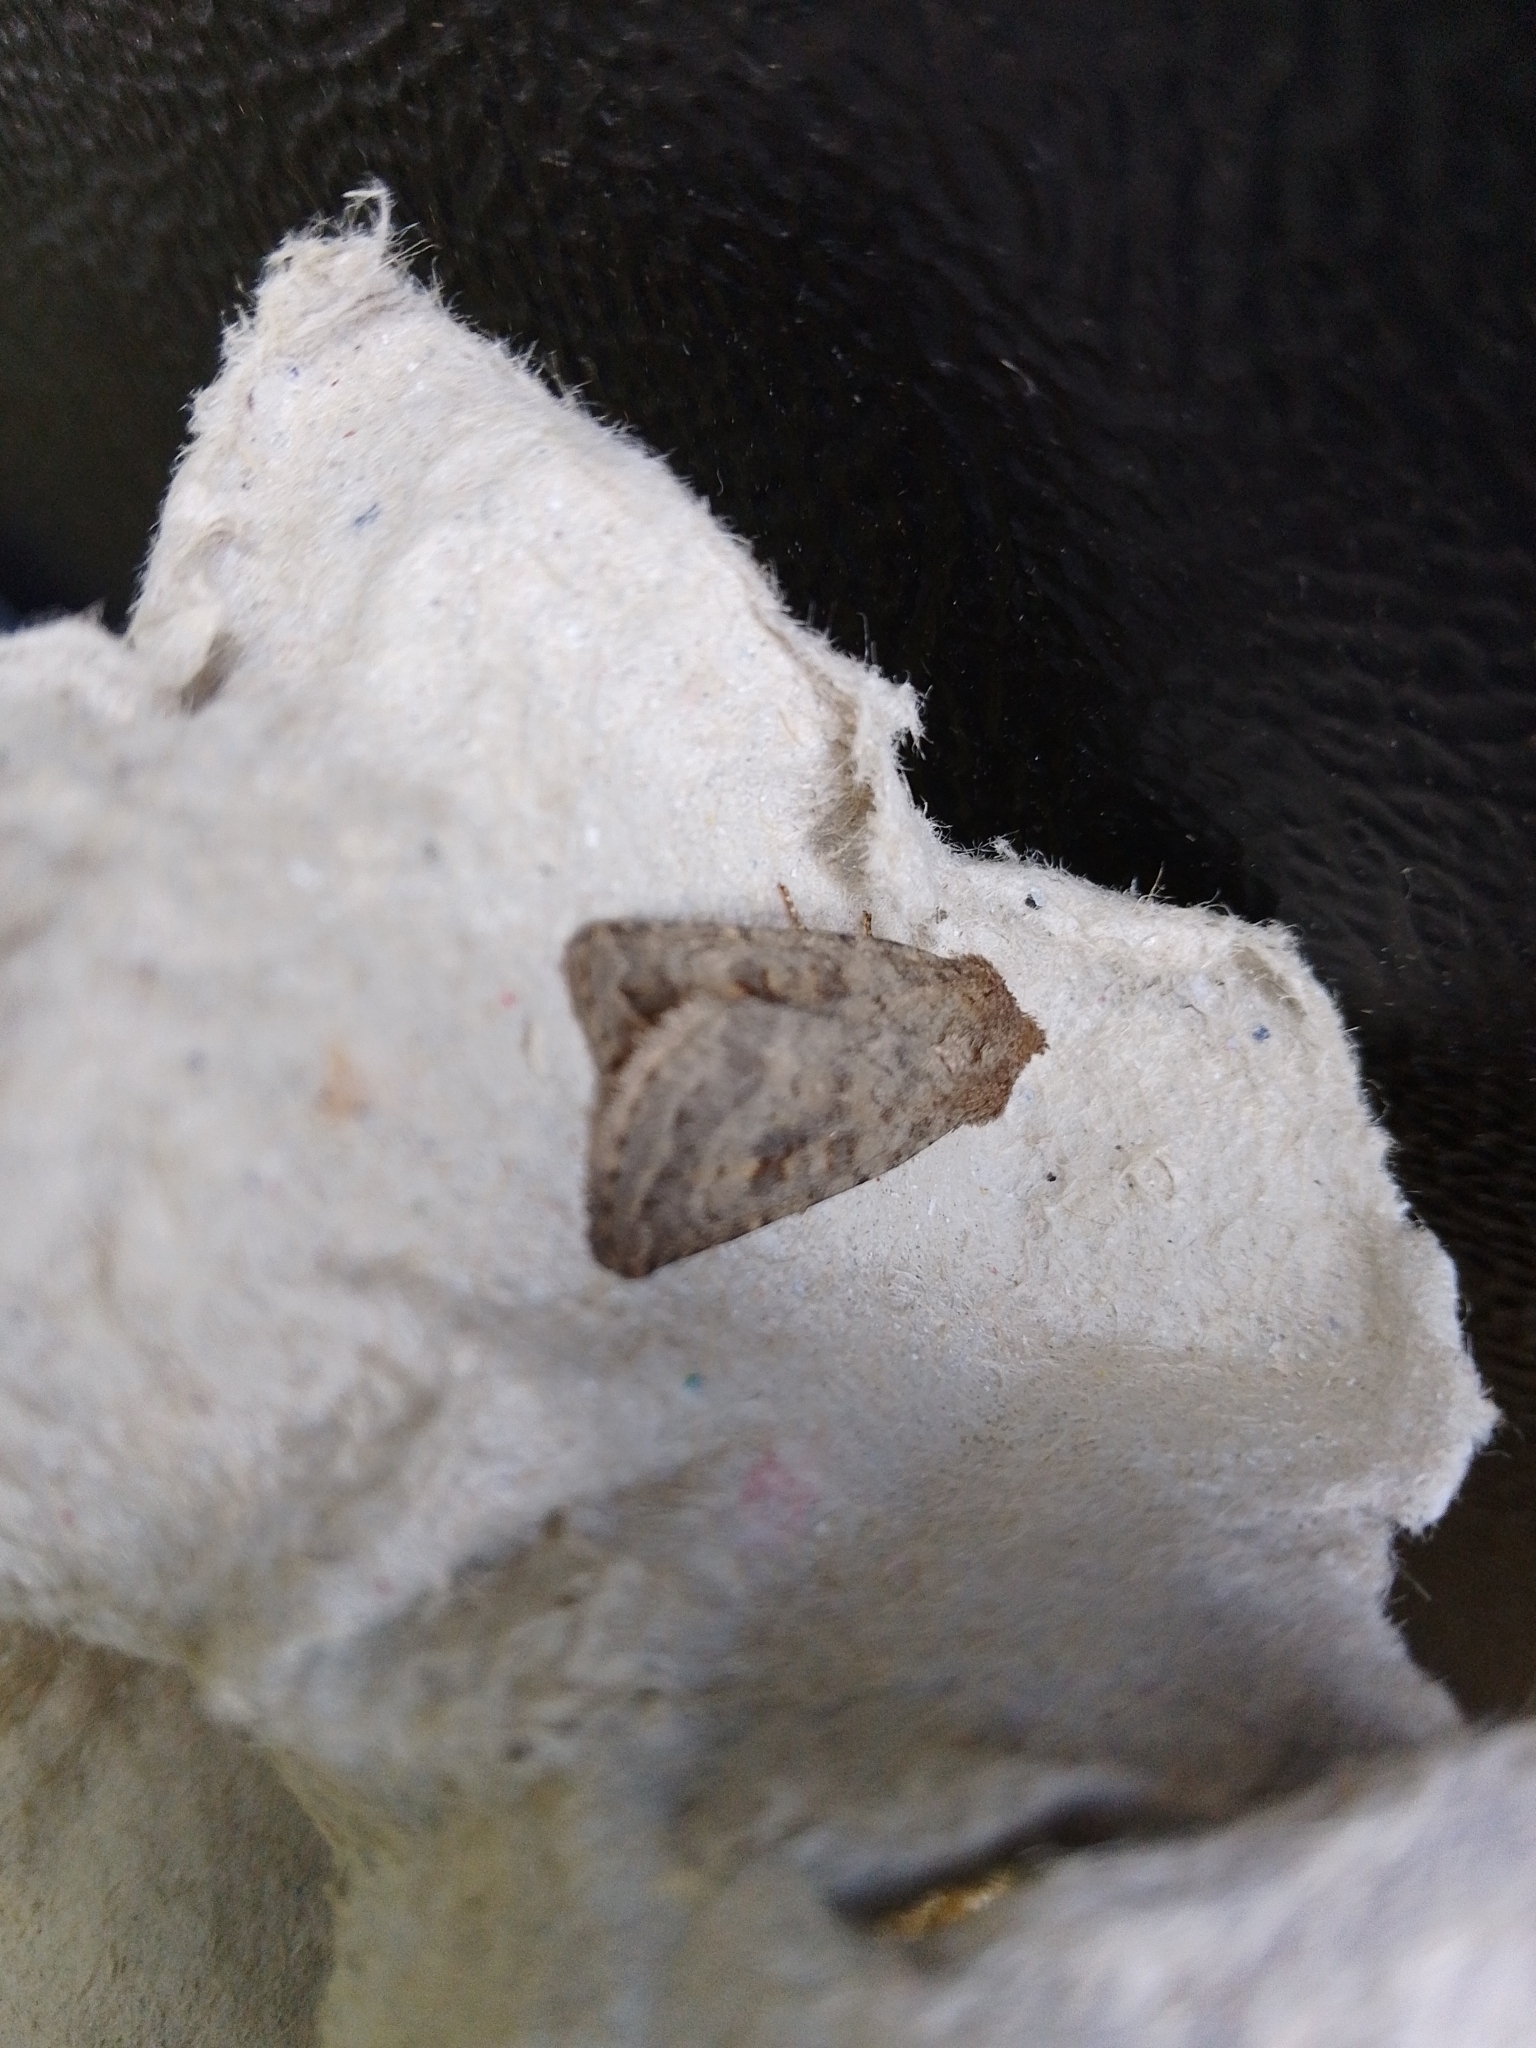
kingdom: Animalia
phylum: Arthropoda
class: Insecta
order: Lepidoptera
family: Noctuidae
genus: Caradrina
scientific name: Caradrina morpheus
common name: Mottled rustic
